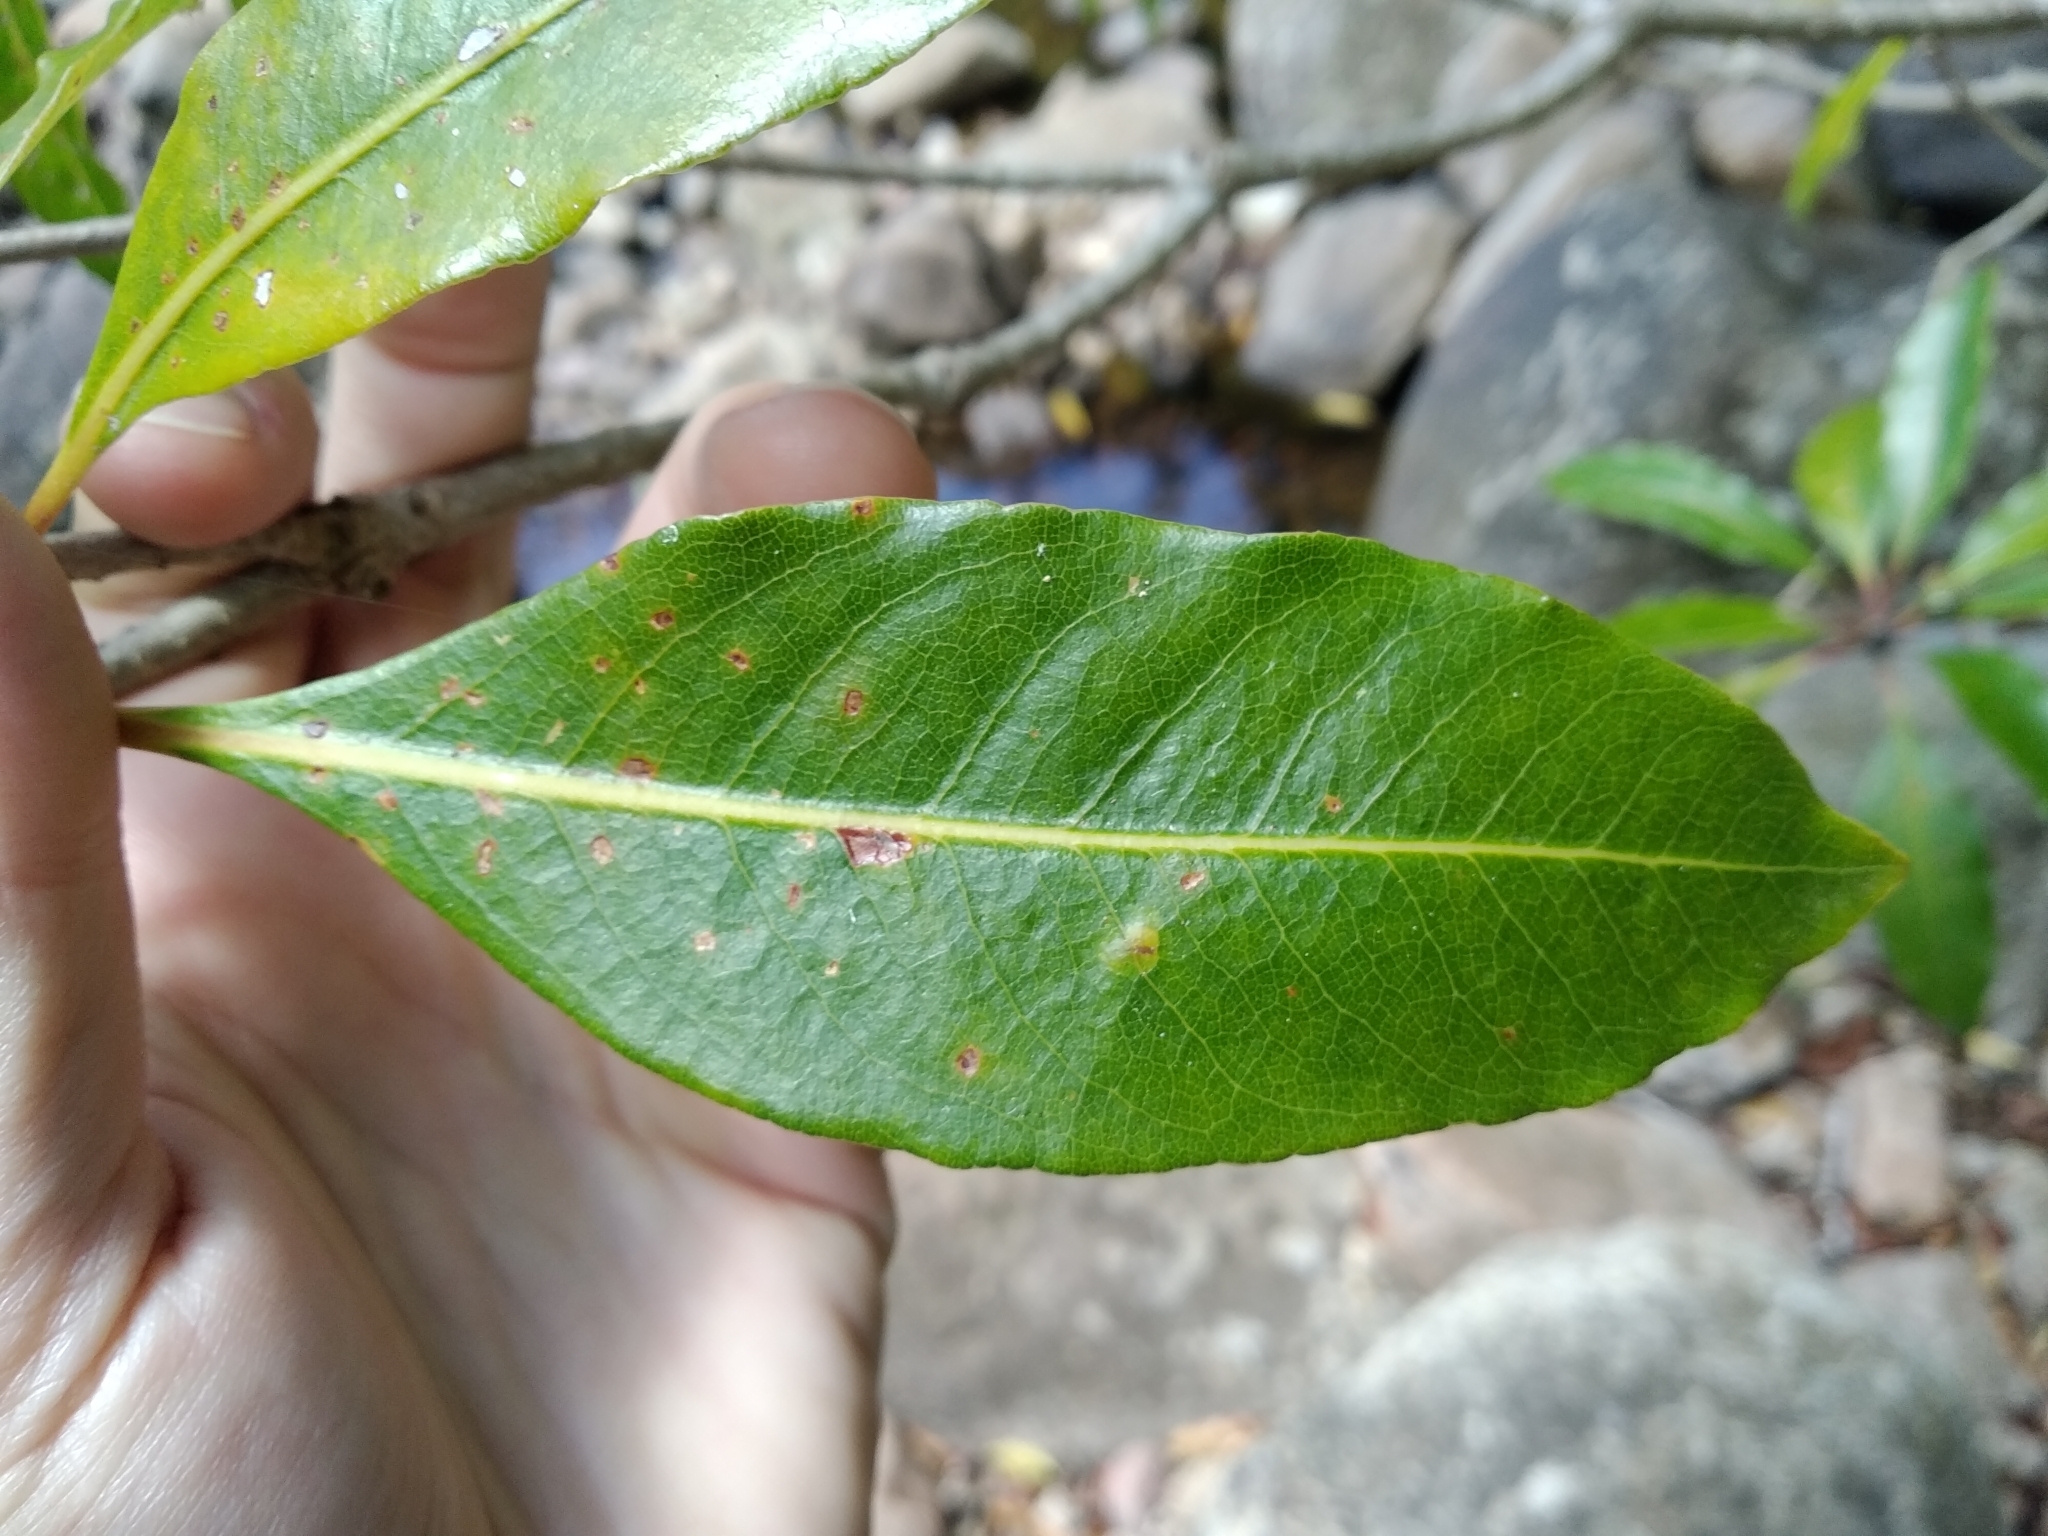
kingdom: Plantae
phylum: Tracheophyta
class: Magnoliopsida
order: Apiales
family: Pittosporaceae
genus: Pittosporum
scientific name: Pittosporum undulatum
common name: Australian cheesewood
